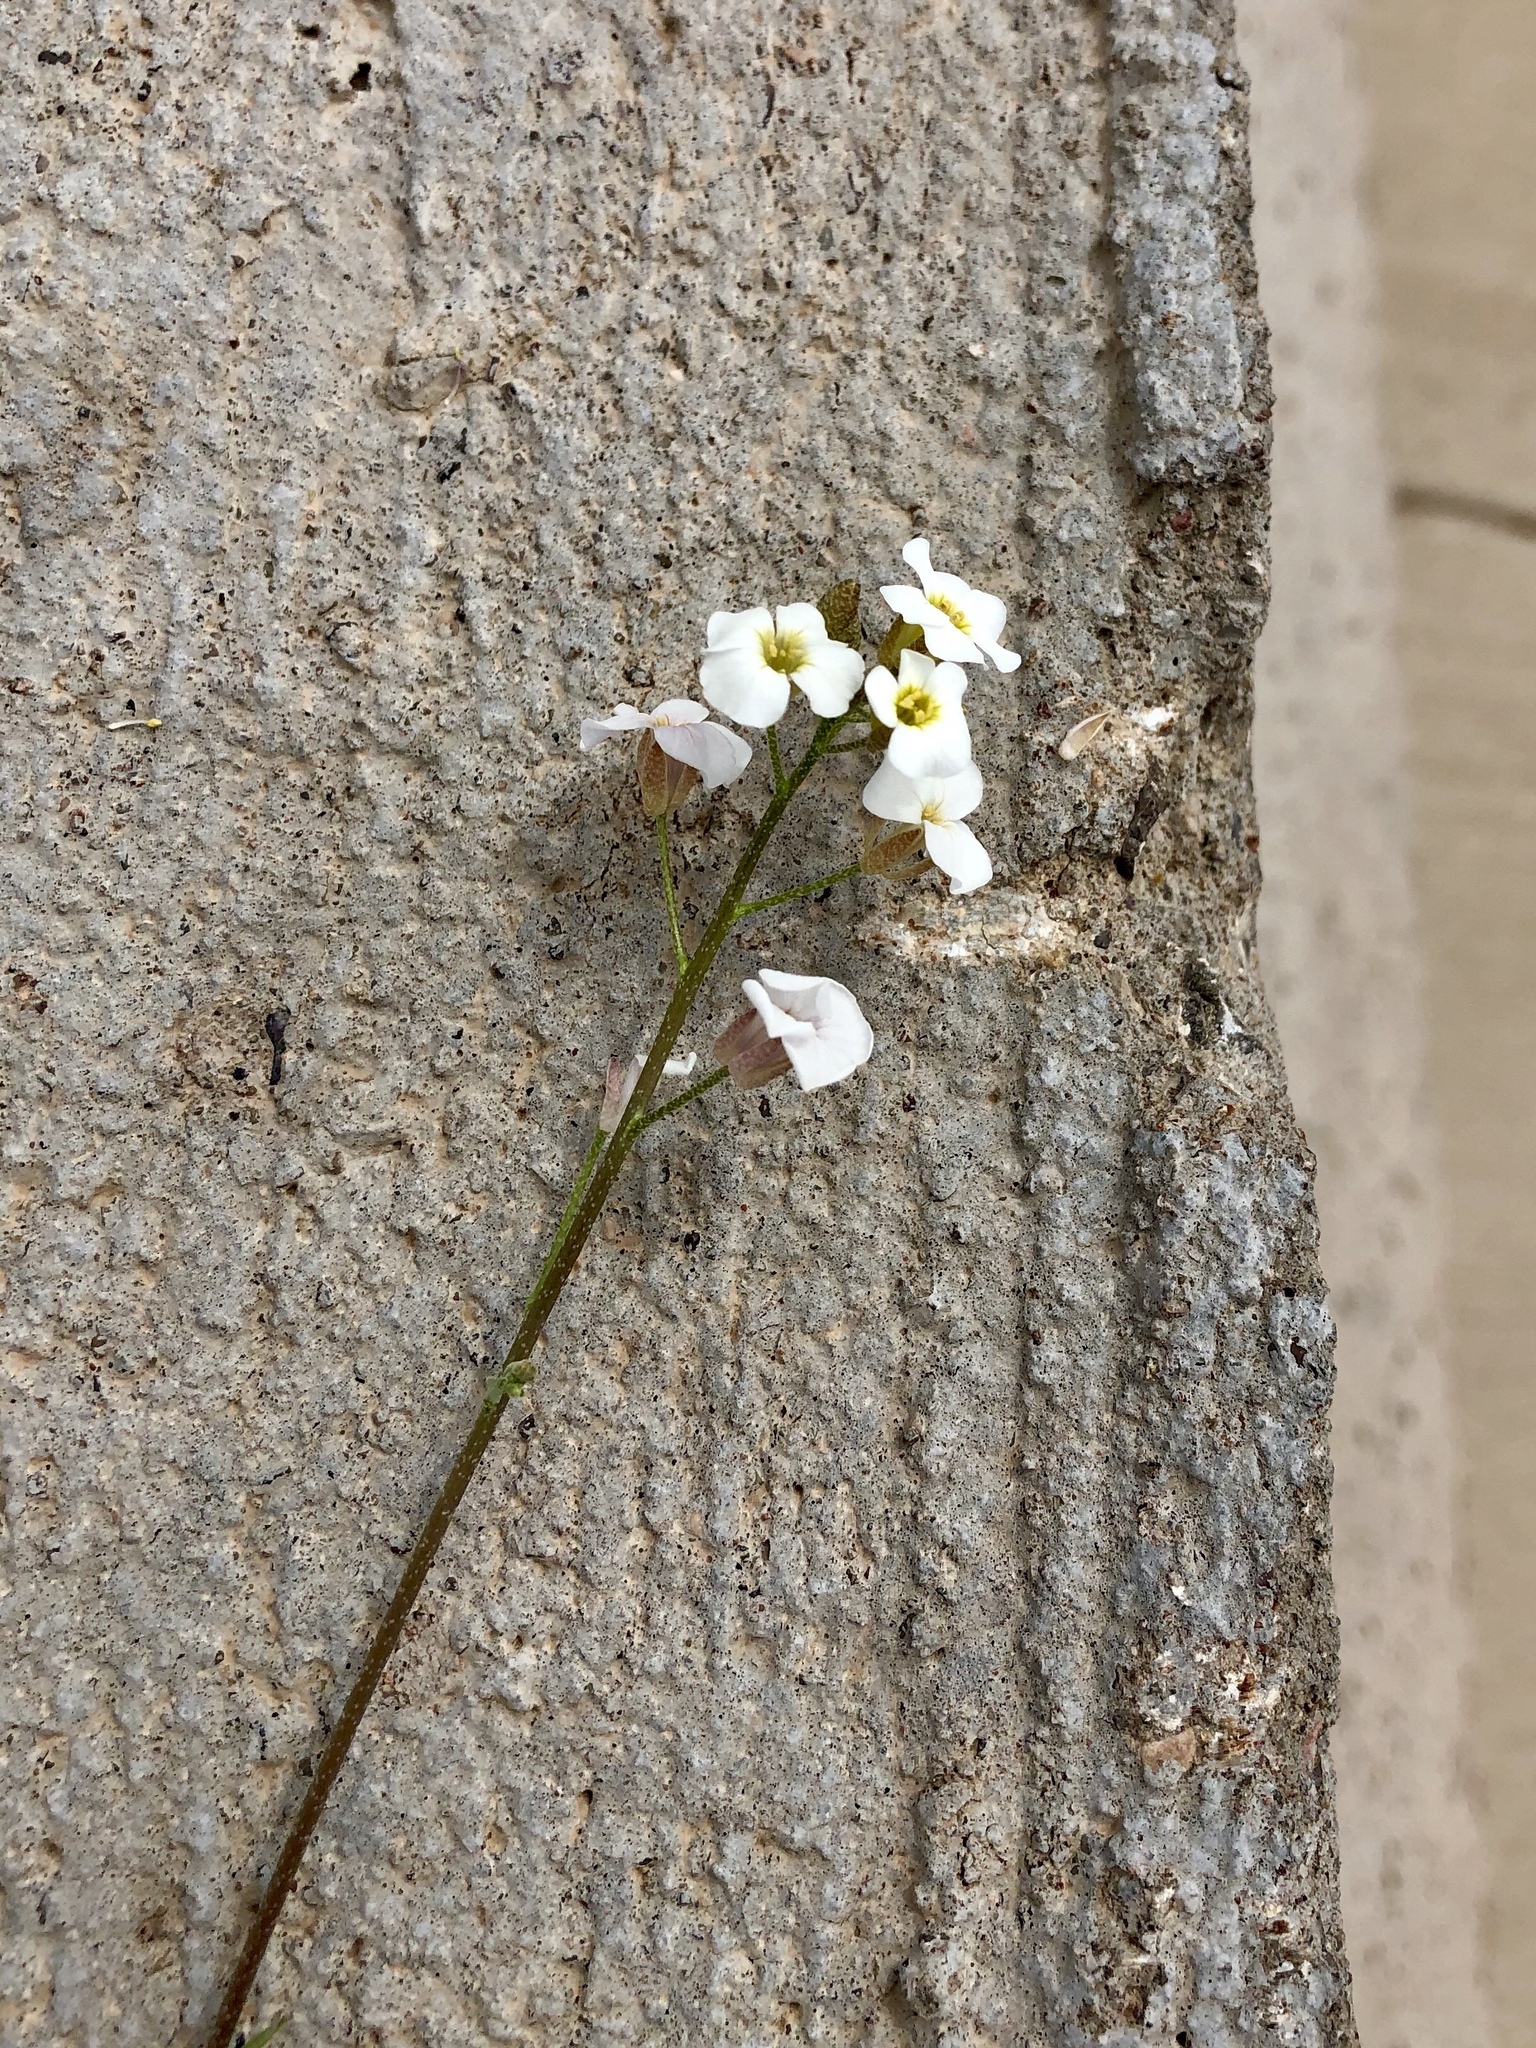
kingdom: Plantae
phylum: Tracheophyta
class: Magnoliopsida
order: Brassicales
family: Brassicaceae
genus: Physaria
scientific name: Physaria purpurea
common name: Rose bladderpod
